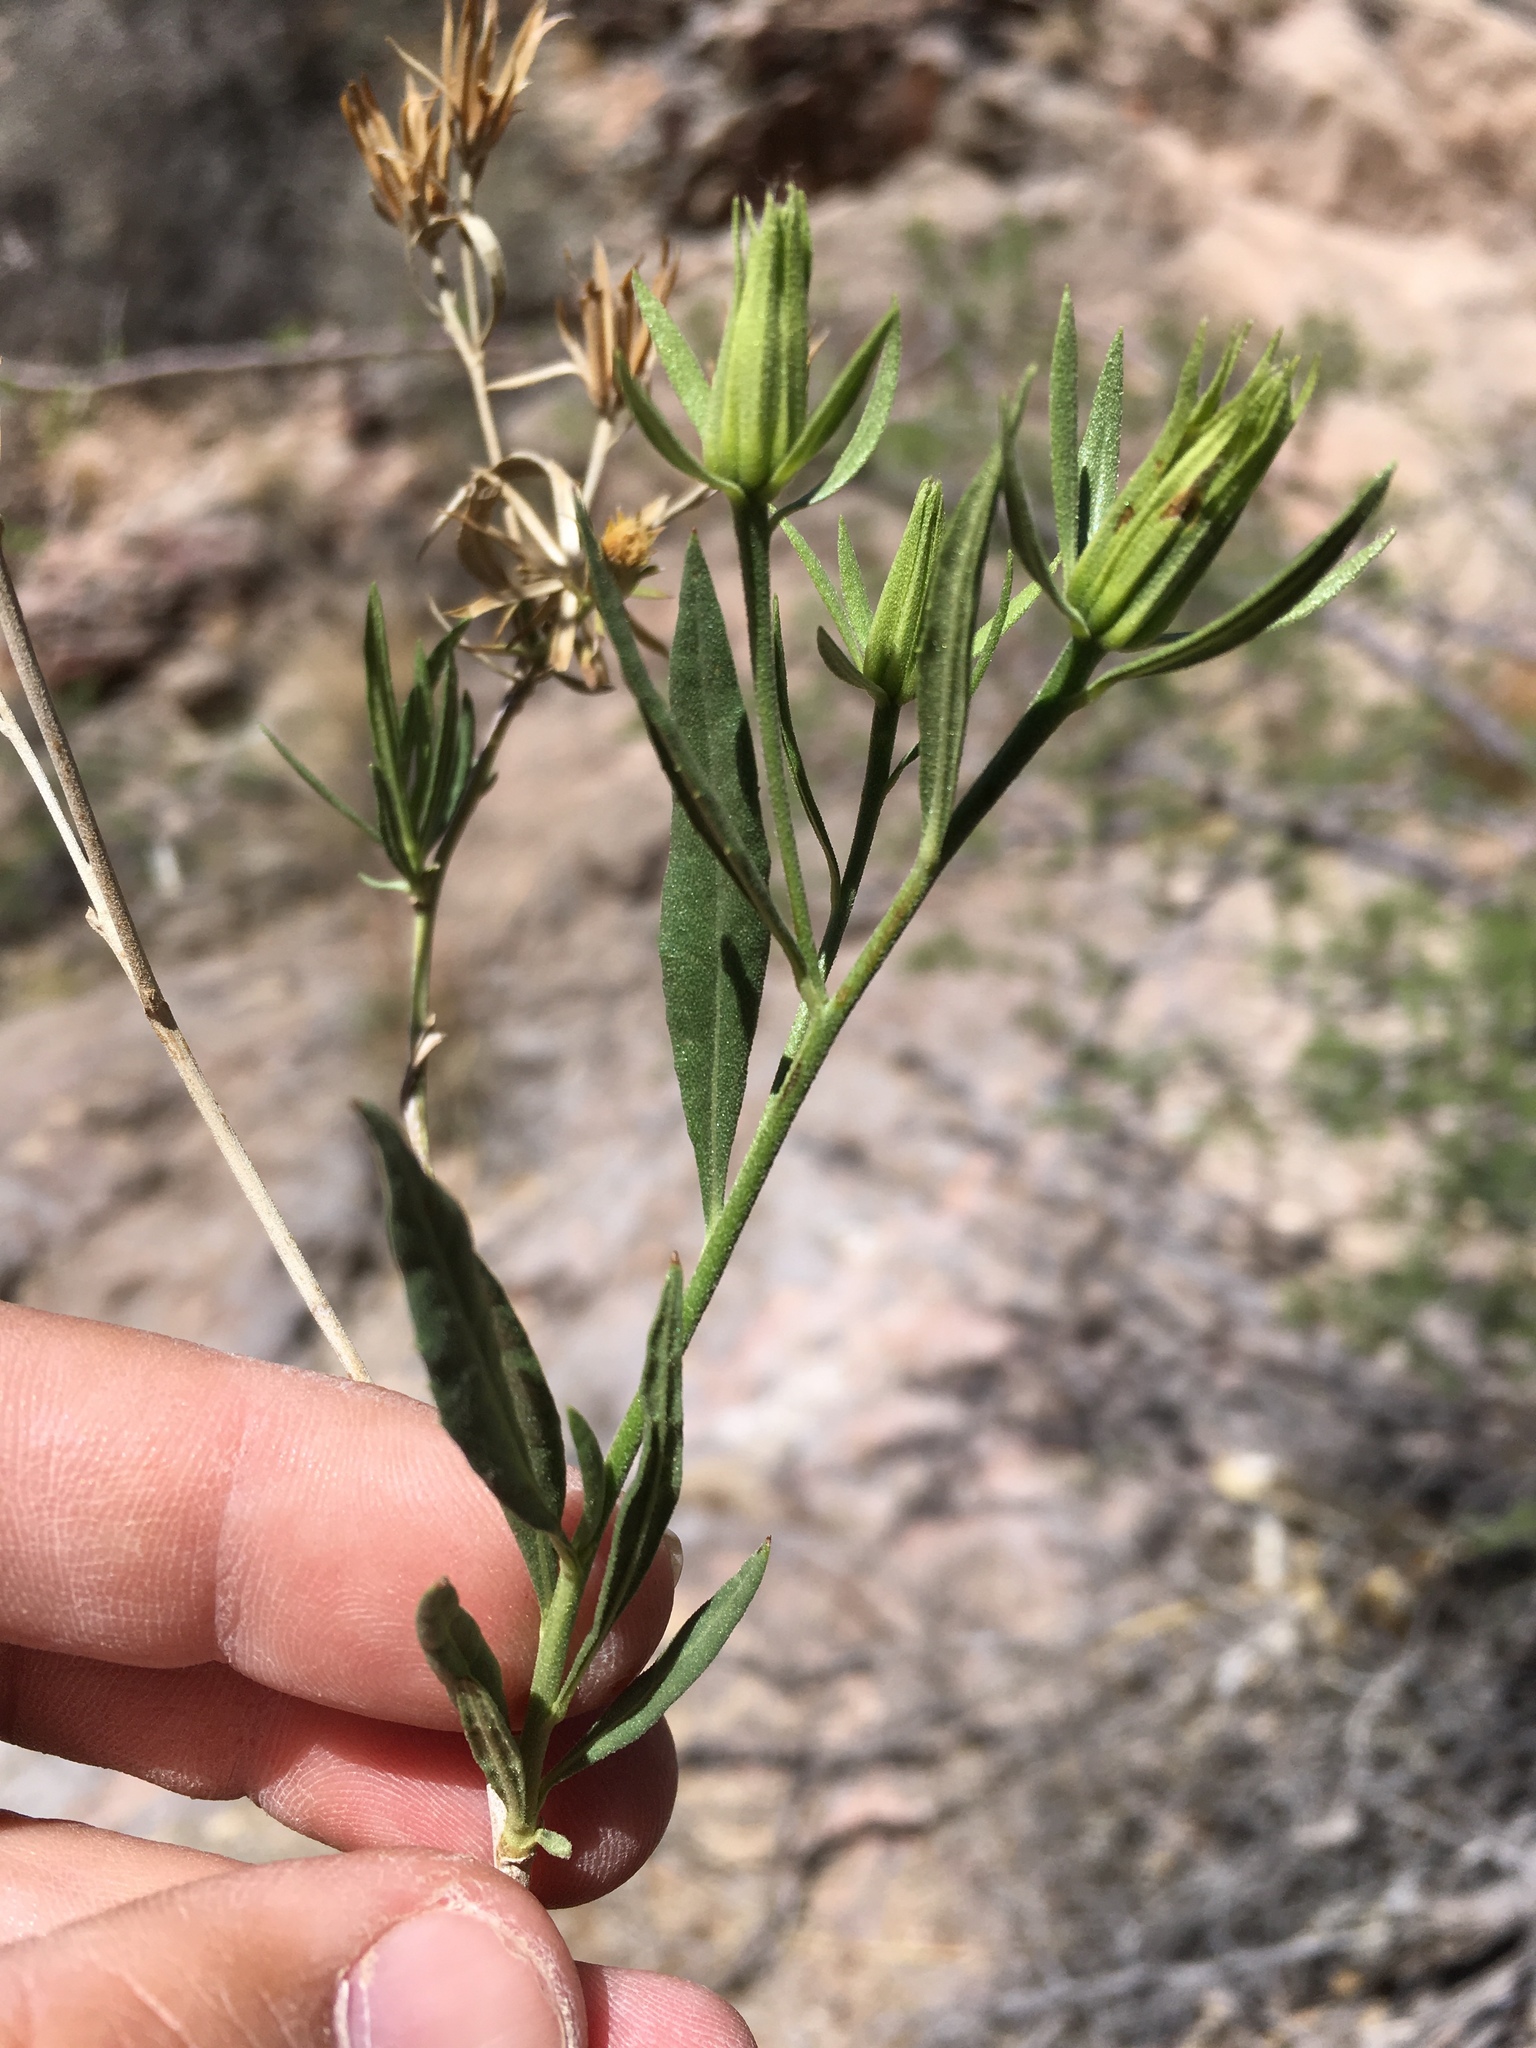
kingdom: Plantae
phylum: Tracheophyta
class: Magnoliopsida
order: Asterales
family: Asteraceae
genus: Trixis
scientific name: Trixis californica
